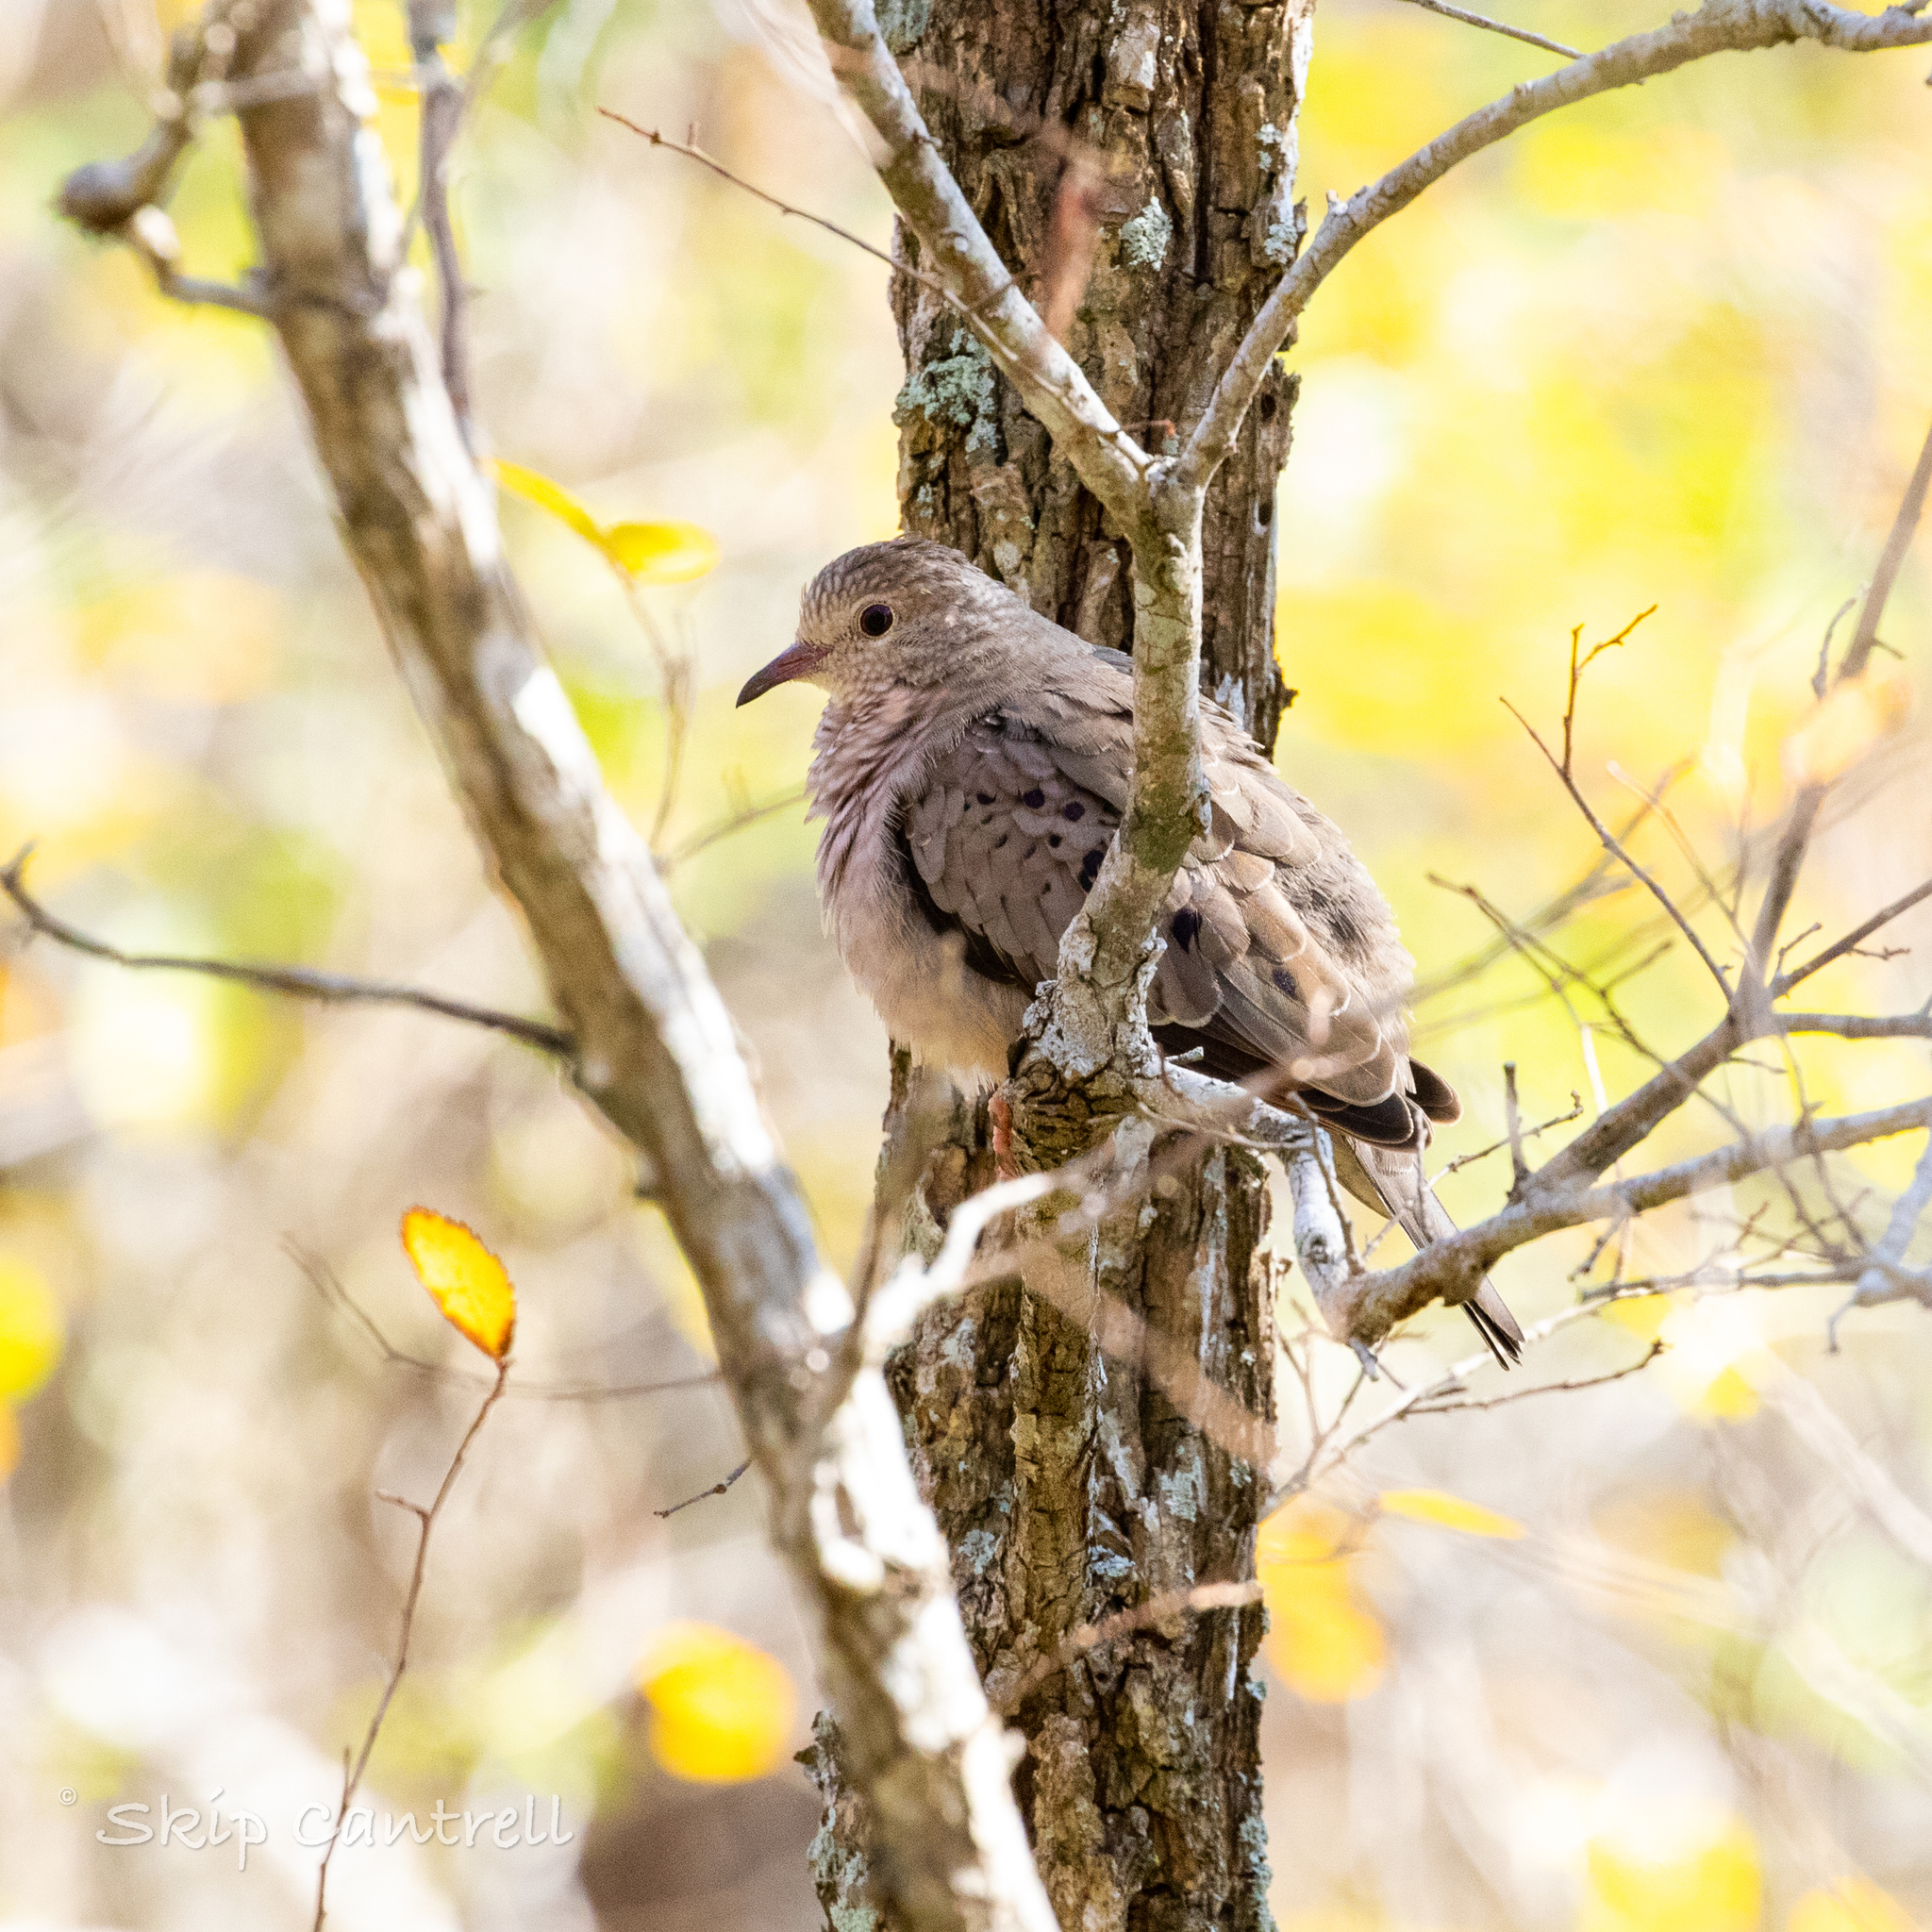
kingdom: Animalia
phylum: Chordata
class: Aves
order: Columbiformes
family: Columbidae
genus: Columbina
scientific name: Columbina passerina
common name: Common ground-dove
